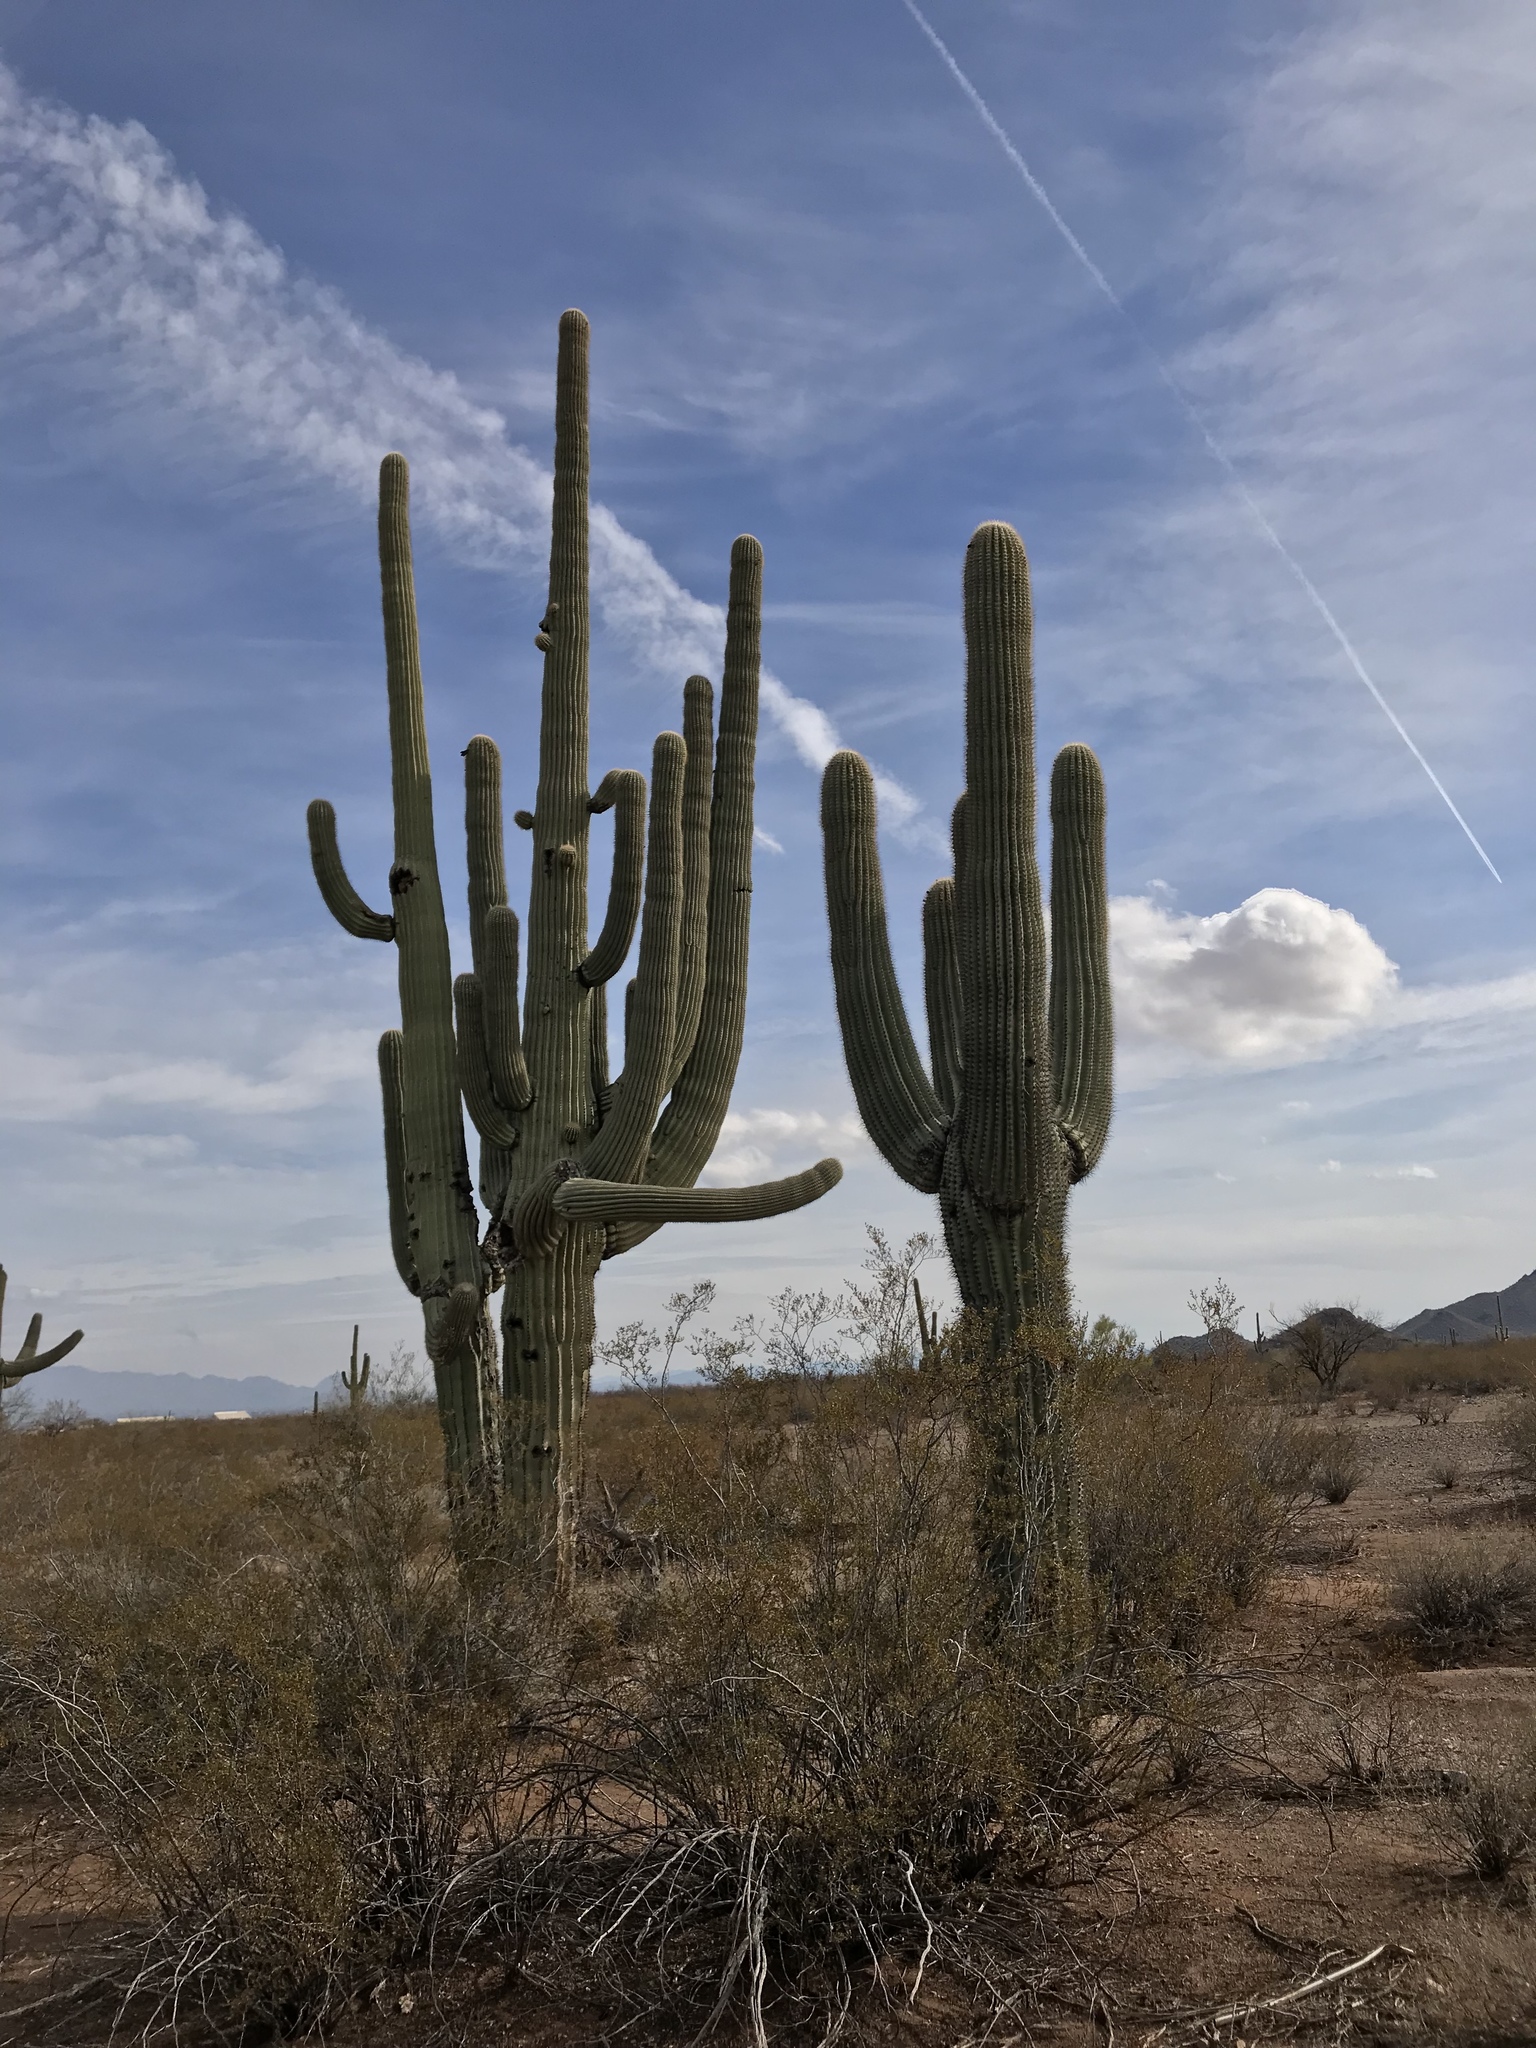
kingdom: Plantae
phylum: Tracheophyta
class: Magnoliopsida
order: Caryophyllales
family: Cactaceae
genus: Carnegiea
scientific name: Carnegiea gigantea
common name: Saguaro
